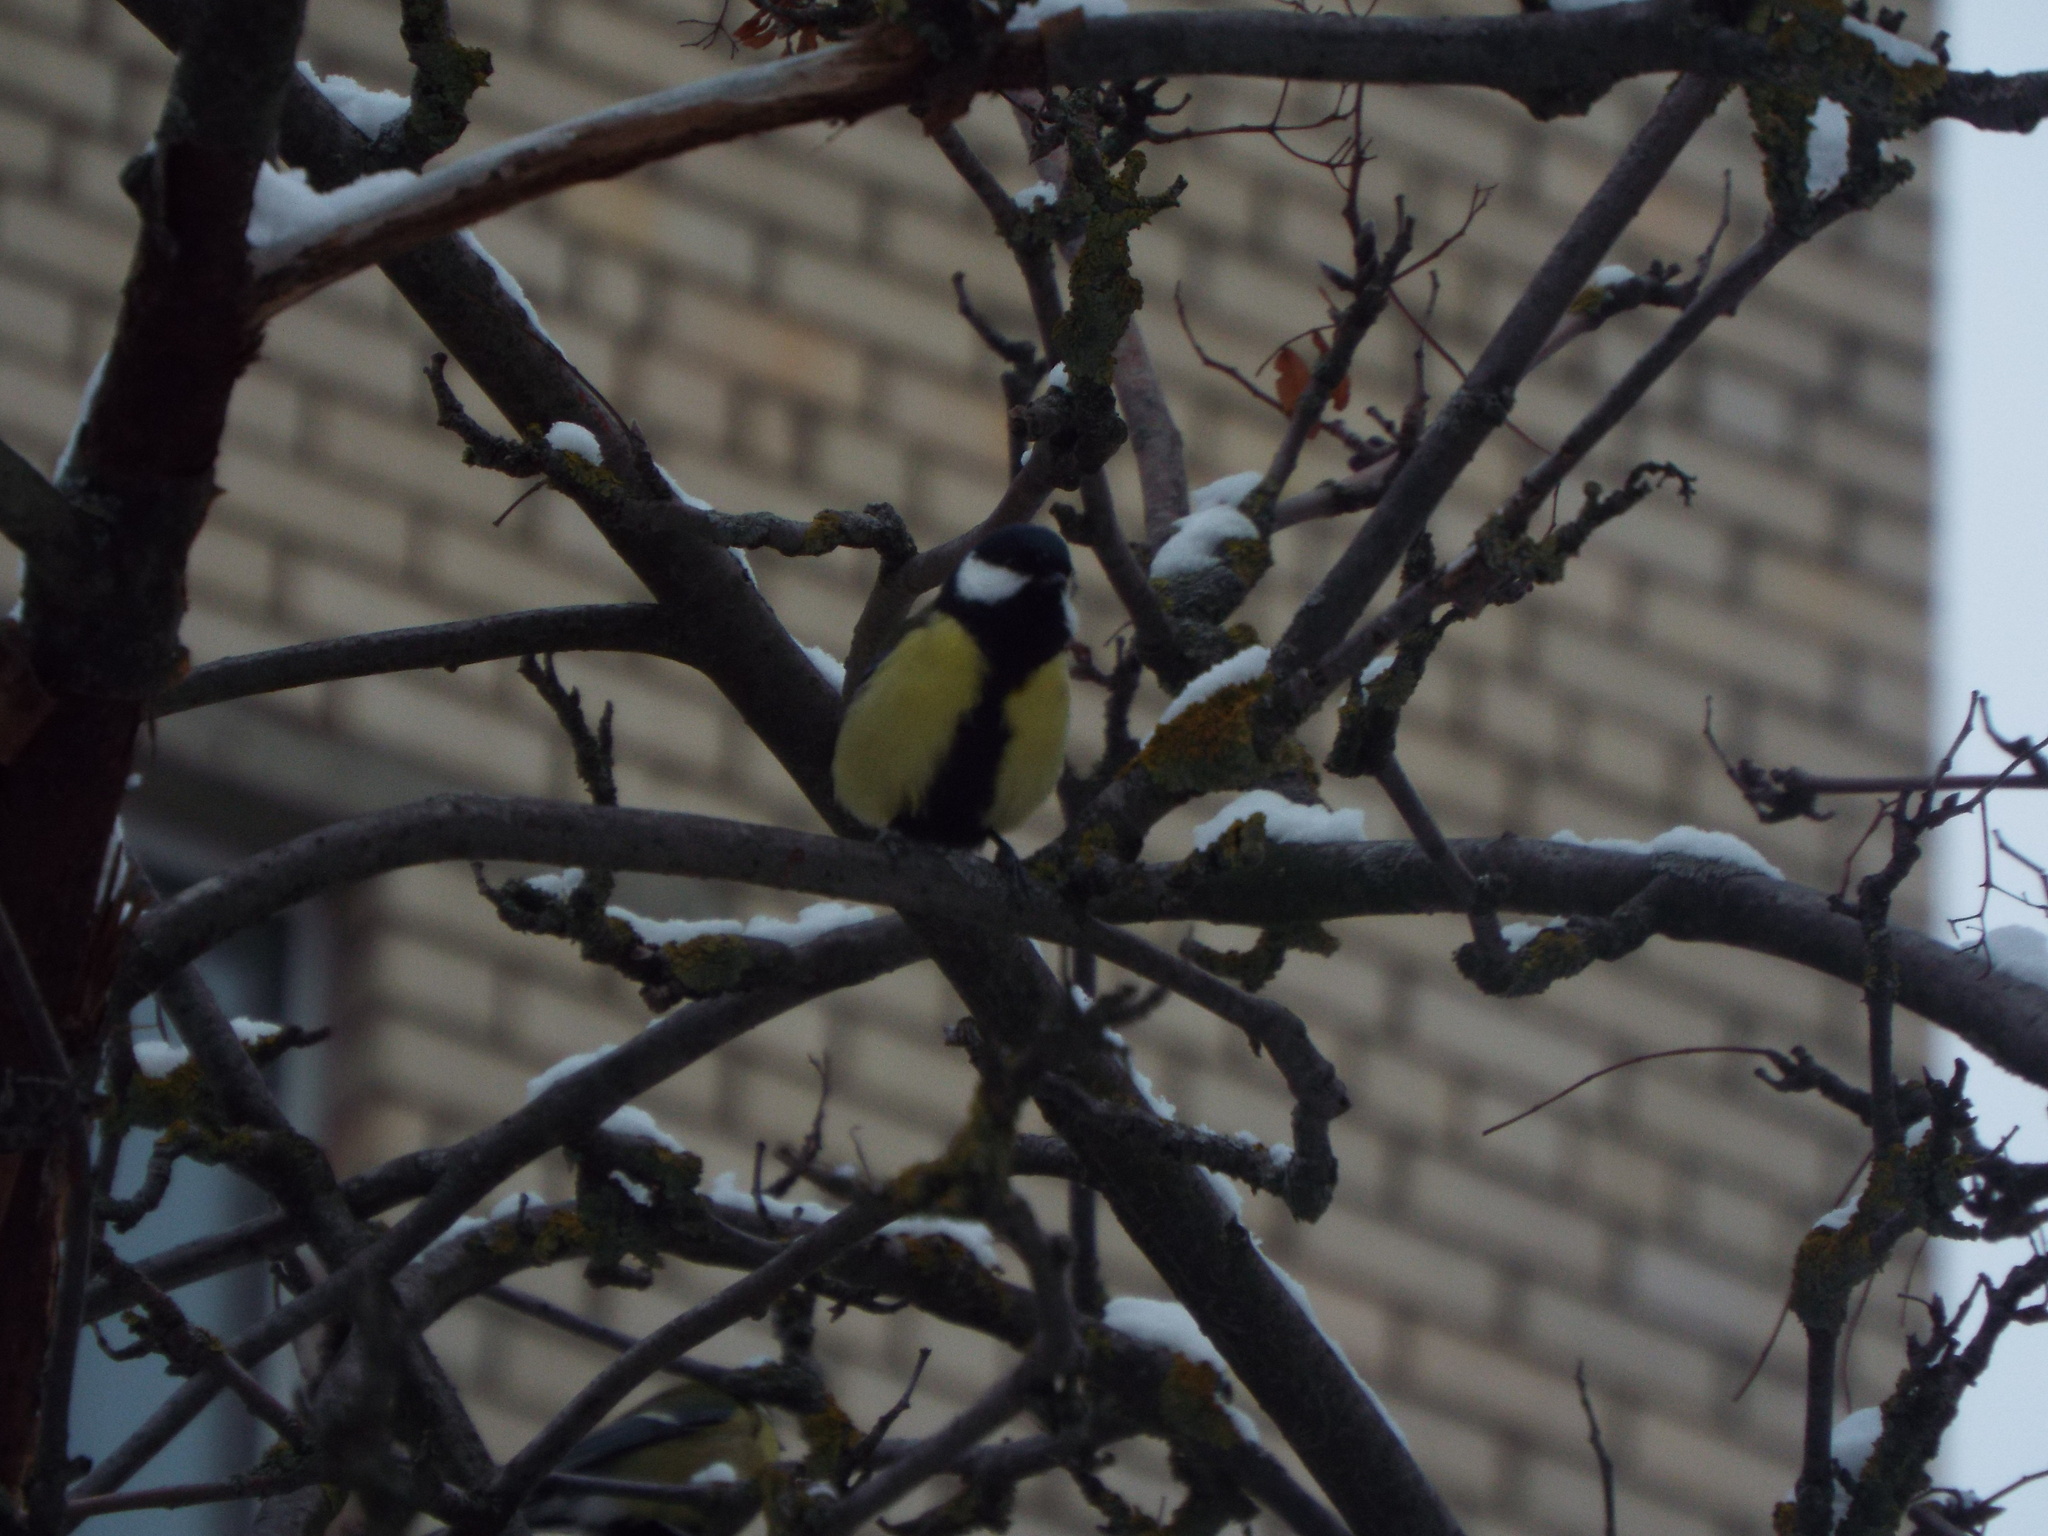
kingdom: Animalia
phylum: Chordata
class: Aves
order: Passeriformes
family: Paridae
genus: Parus
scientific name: Parus major
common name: Great tit
